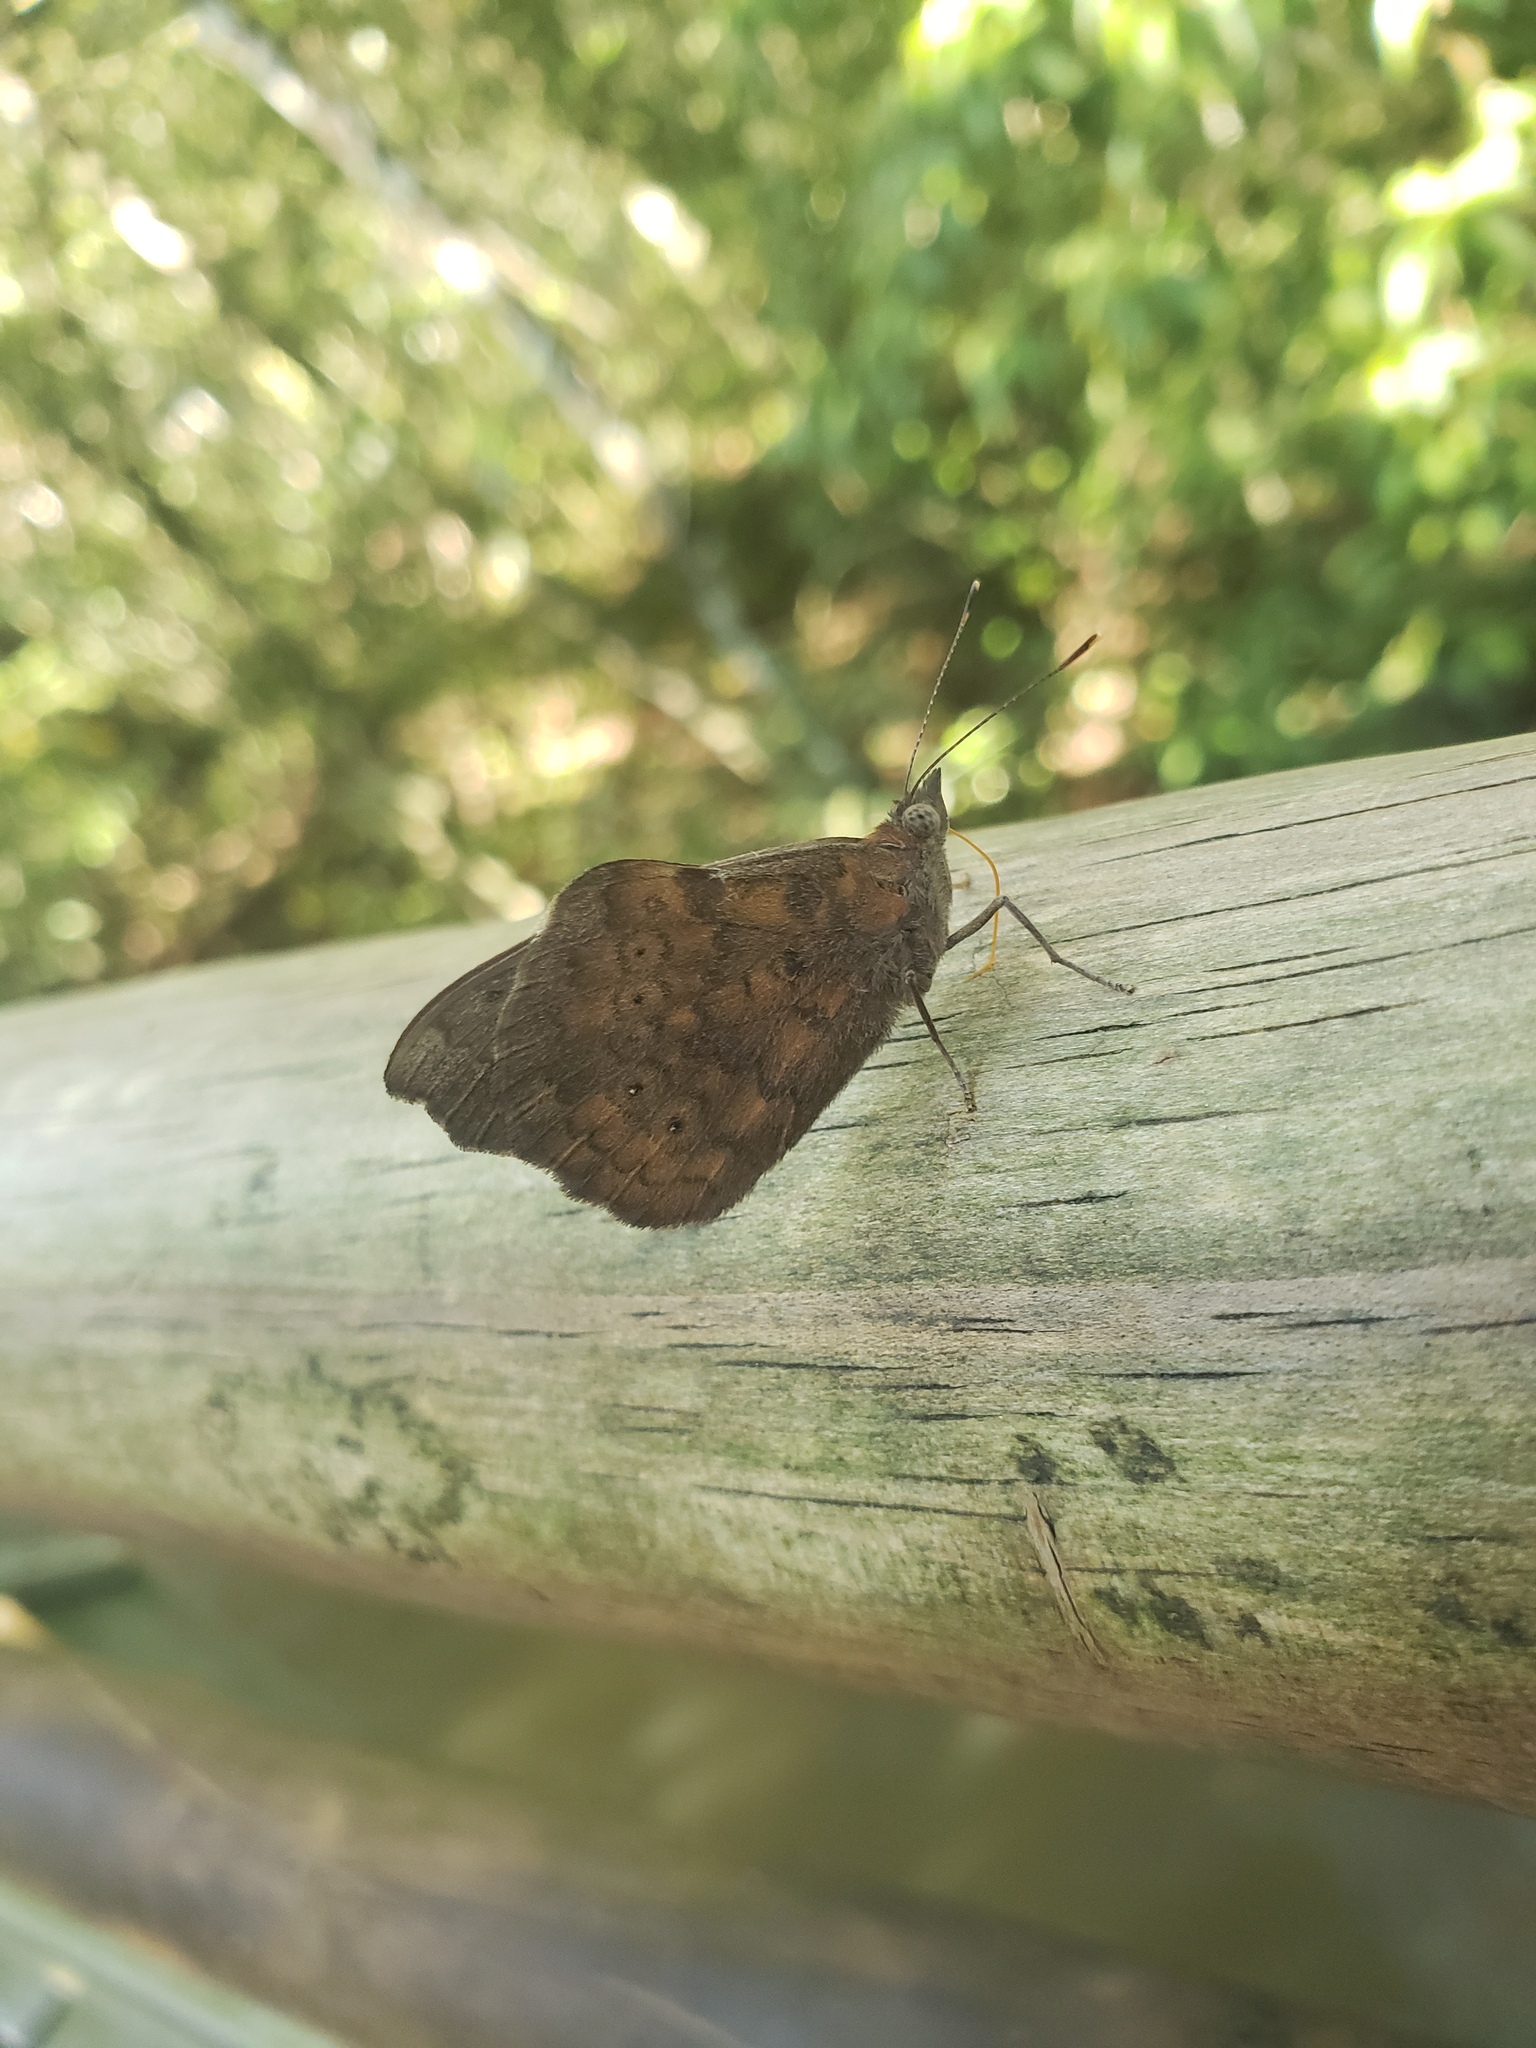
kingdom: Animalia
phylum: Arthropoda
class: Insecta
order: Lepidoptera
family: Nymphalidae
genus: Eunica
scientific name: Eunica tatila
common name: Florida purplewing
